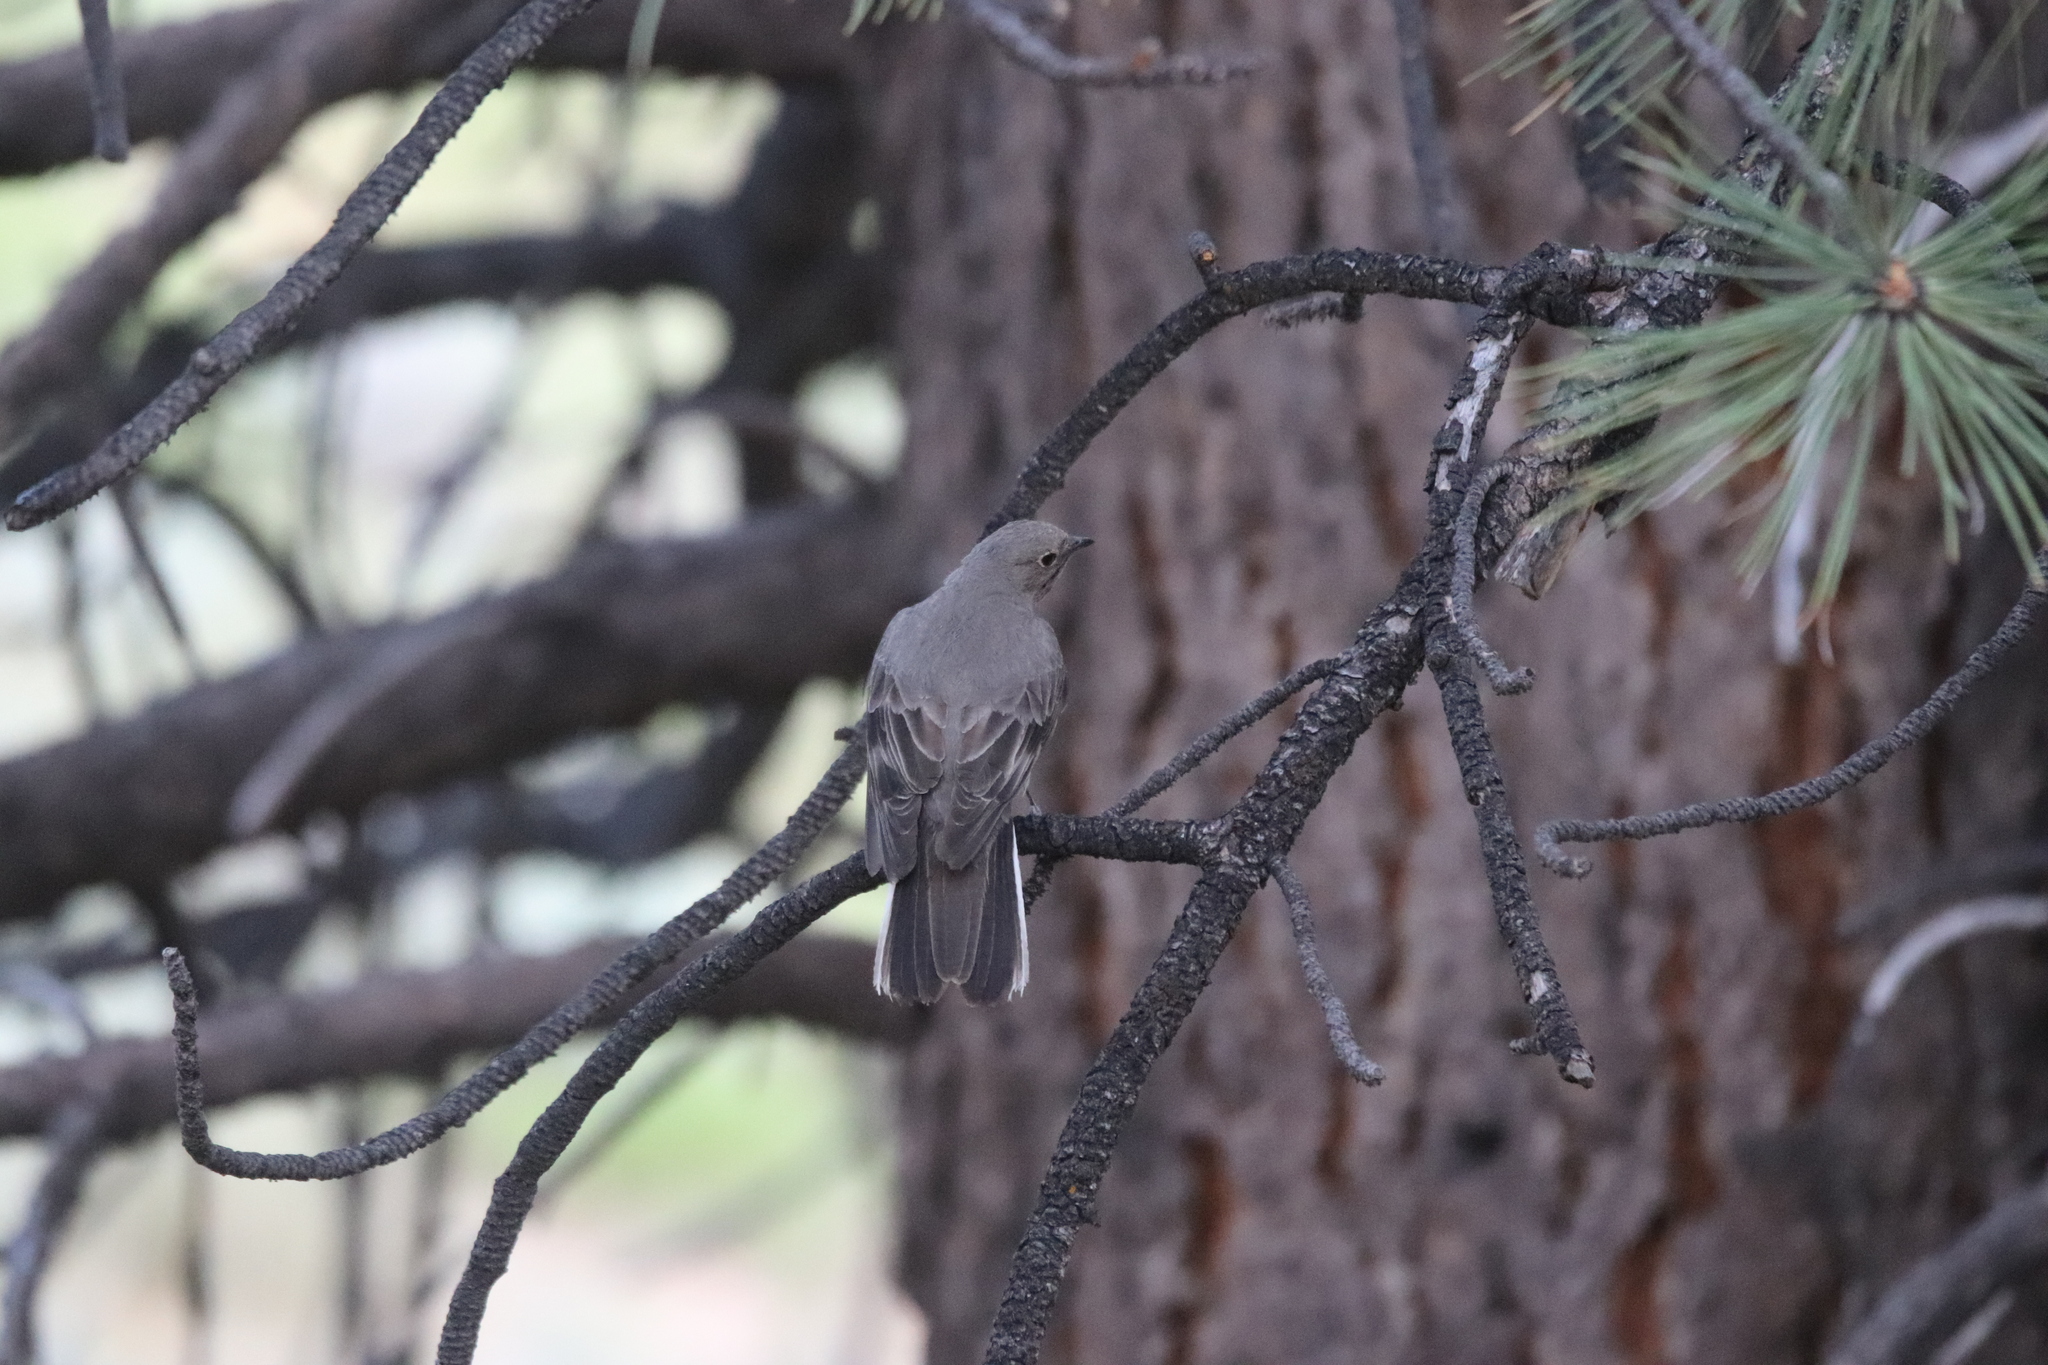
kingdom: Animalia
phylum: Chordata
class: Aves
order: Passeriformes
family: Turdidae
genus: Myadestes
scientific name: Myadestes townsendi
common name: Townsend's solitaire
